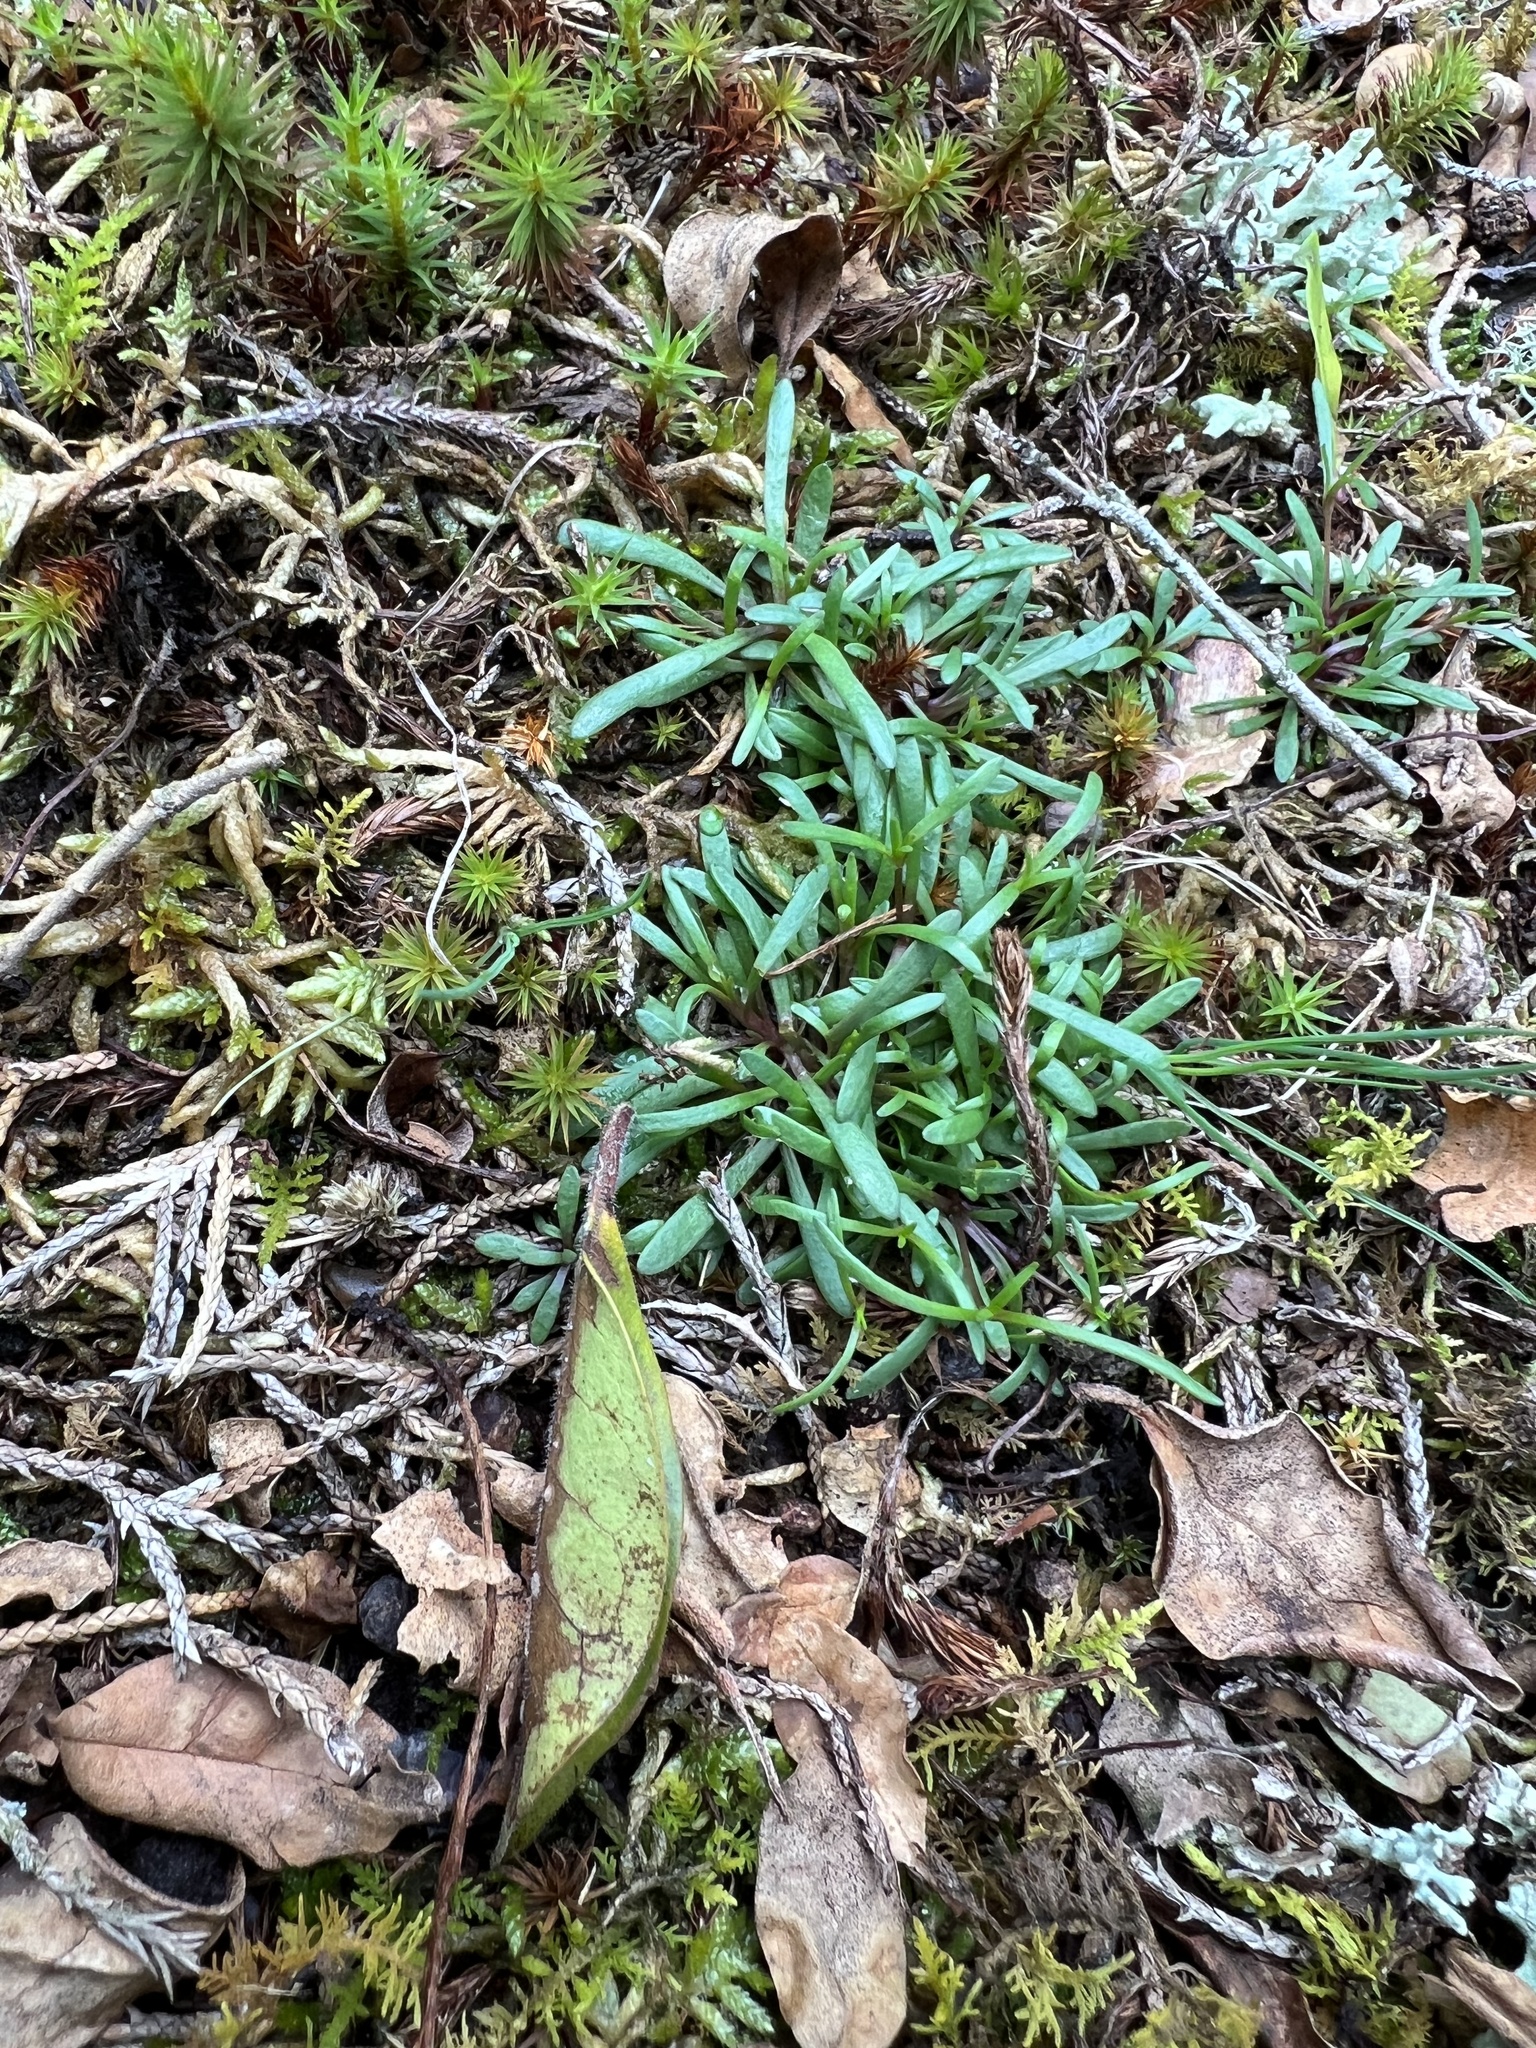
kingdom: Plantae
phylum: Tracheophyta
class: Magnoliopsida
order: Caryophyllales
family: Caryophyllaceae
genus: Geocarpon
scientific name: Geocarpon glabrum
